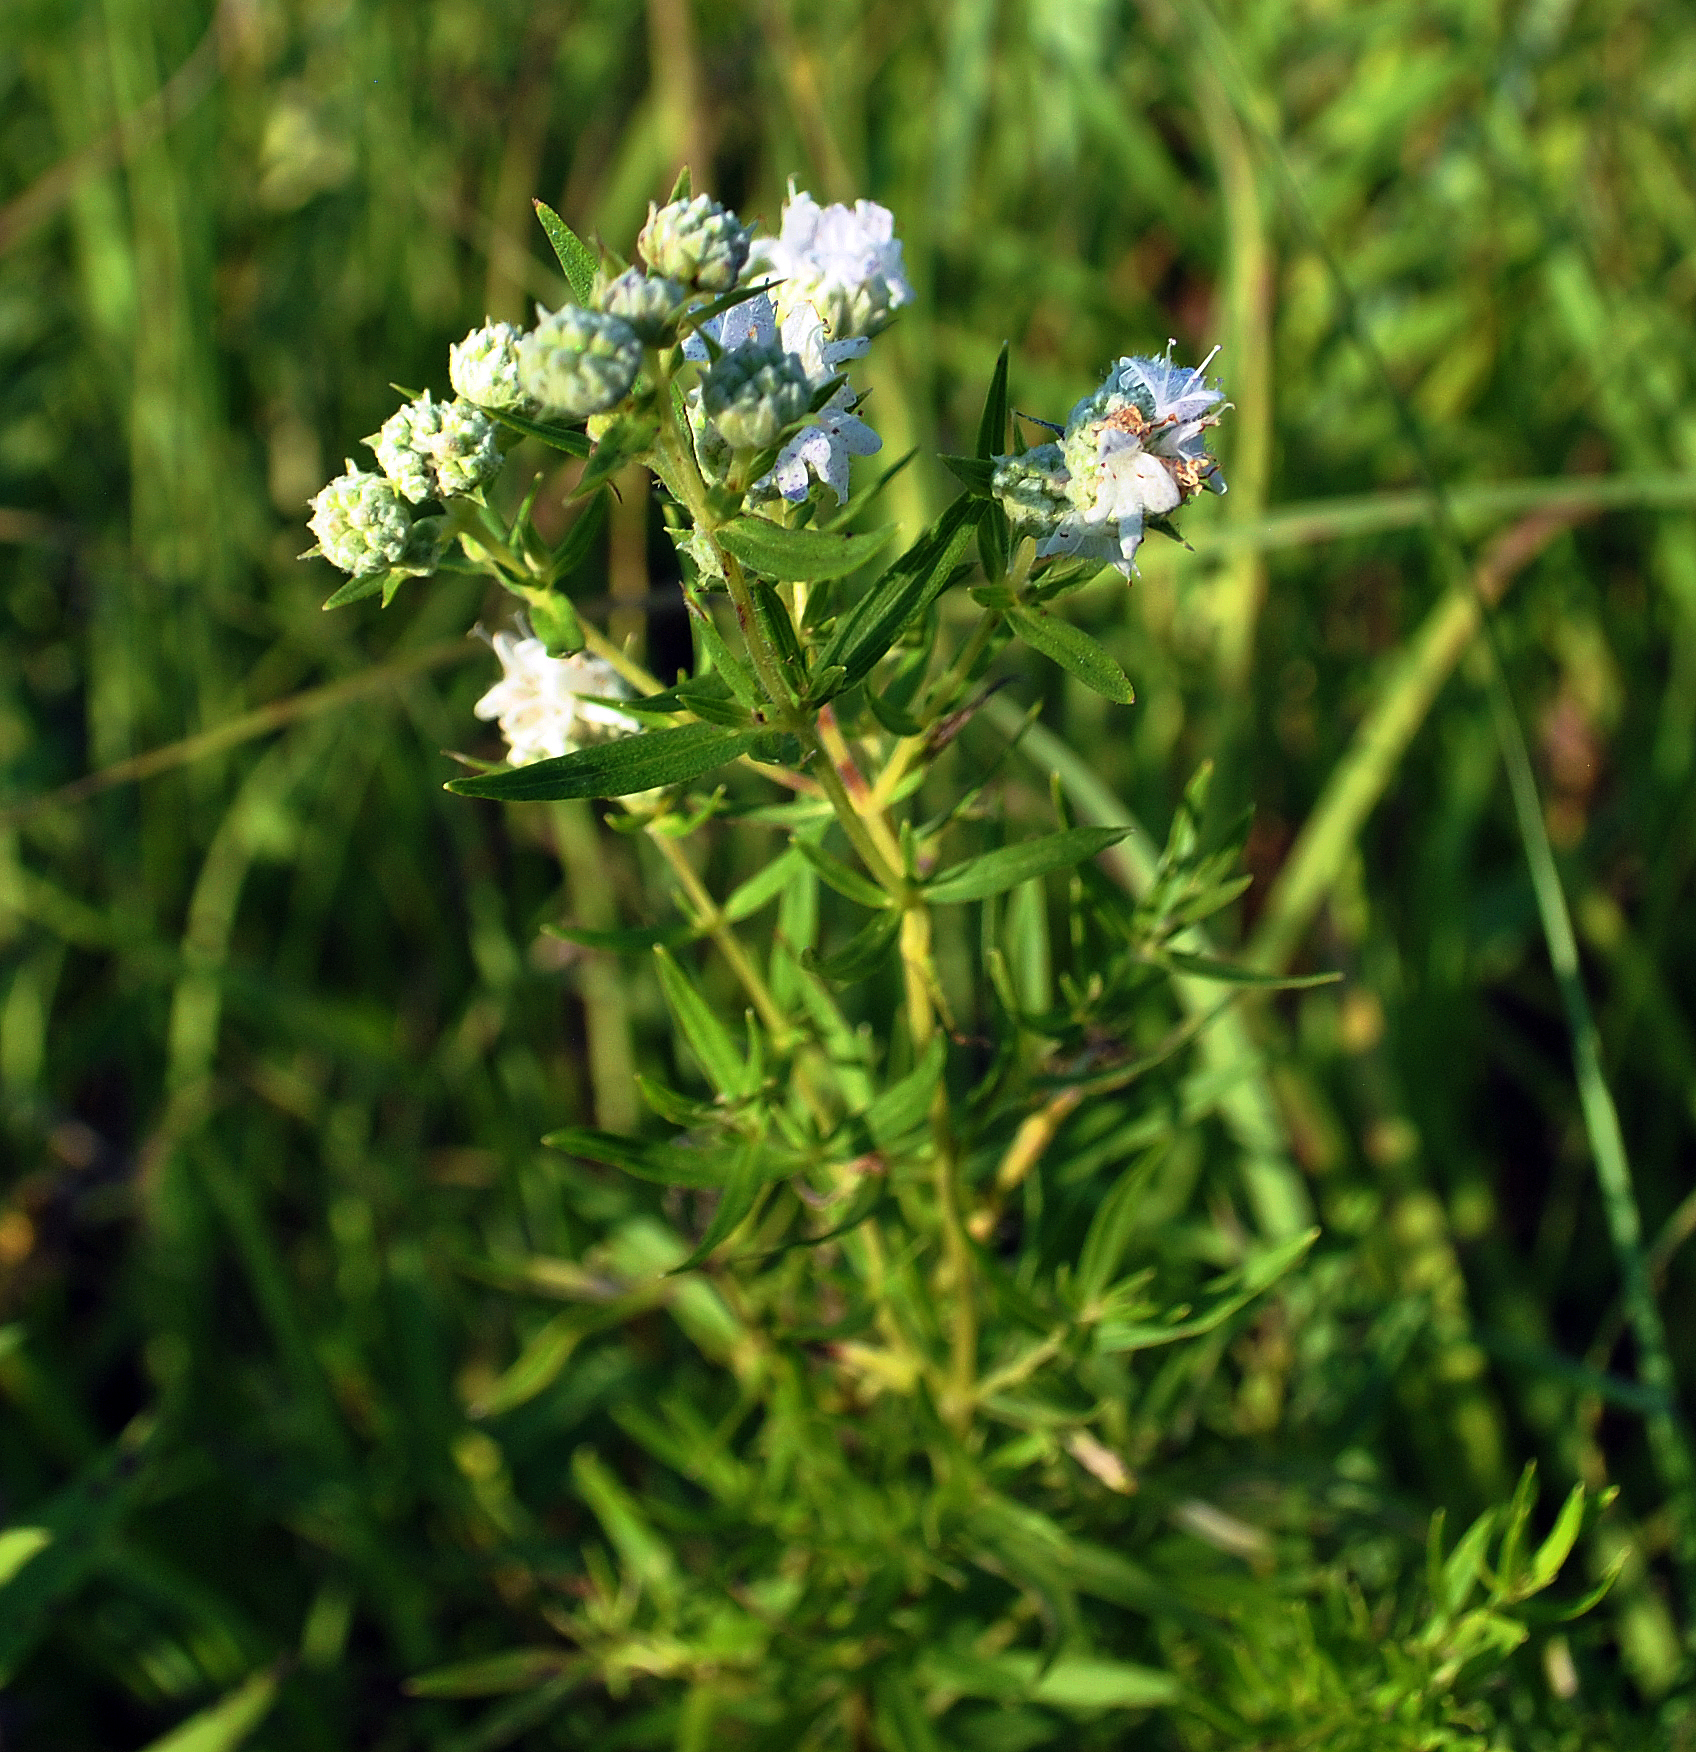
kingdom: Plantae
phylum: Tracheophyta
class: Magnoliopsida
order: Lamiales
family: Lamiaceae
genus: Pycnanthemum
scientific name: Pycnanthemum virginianum
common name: Virginia mountain-mint
